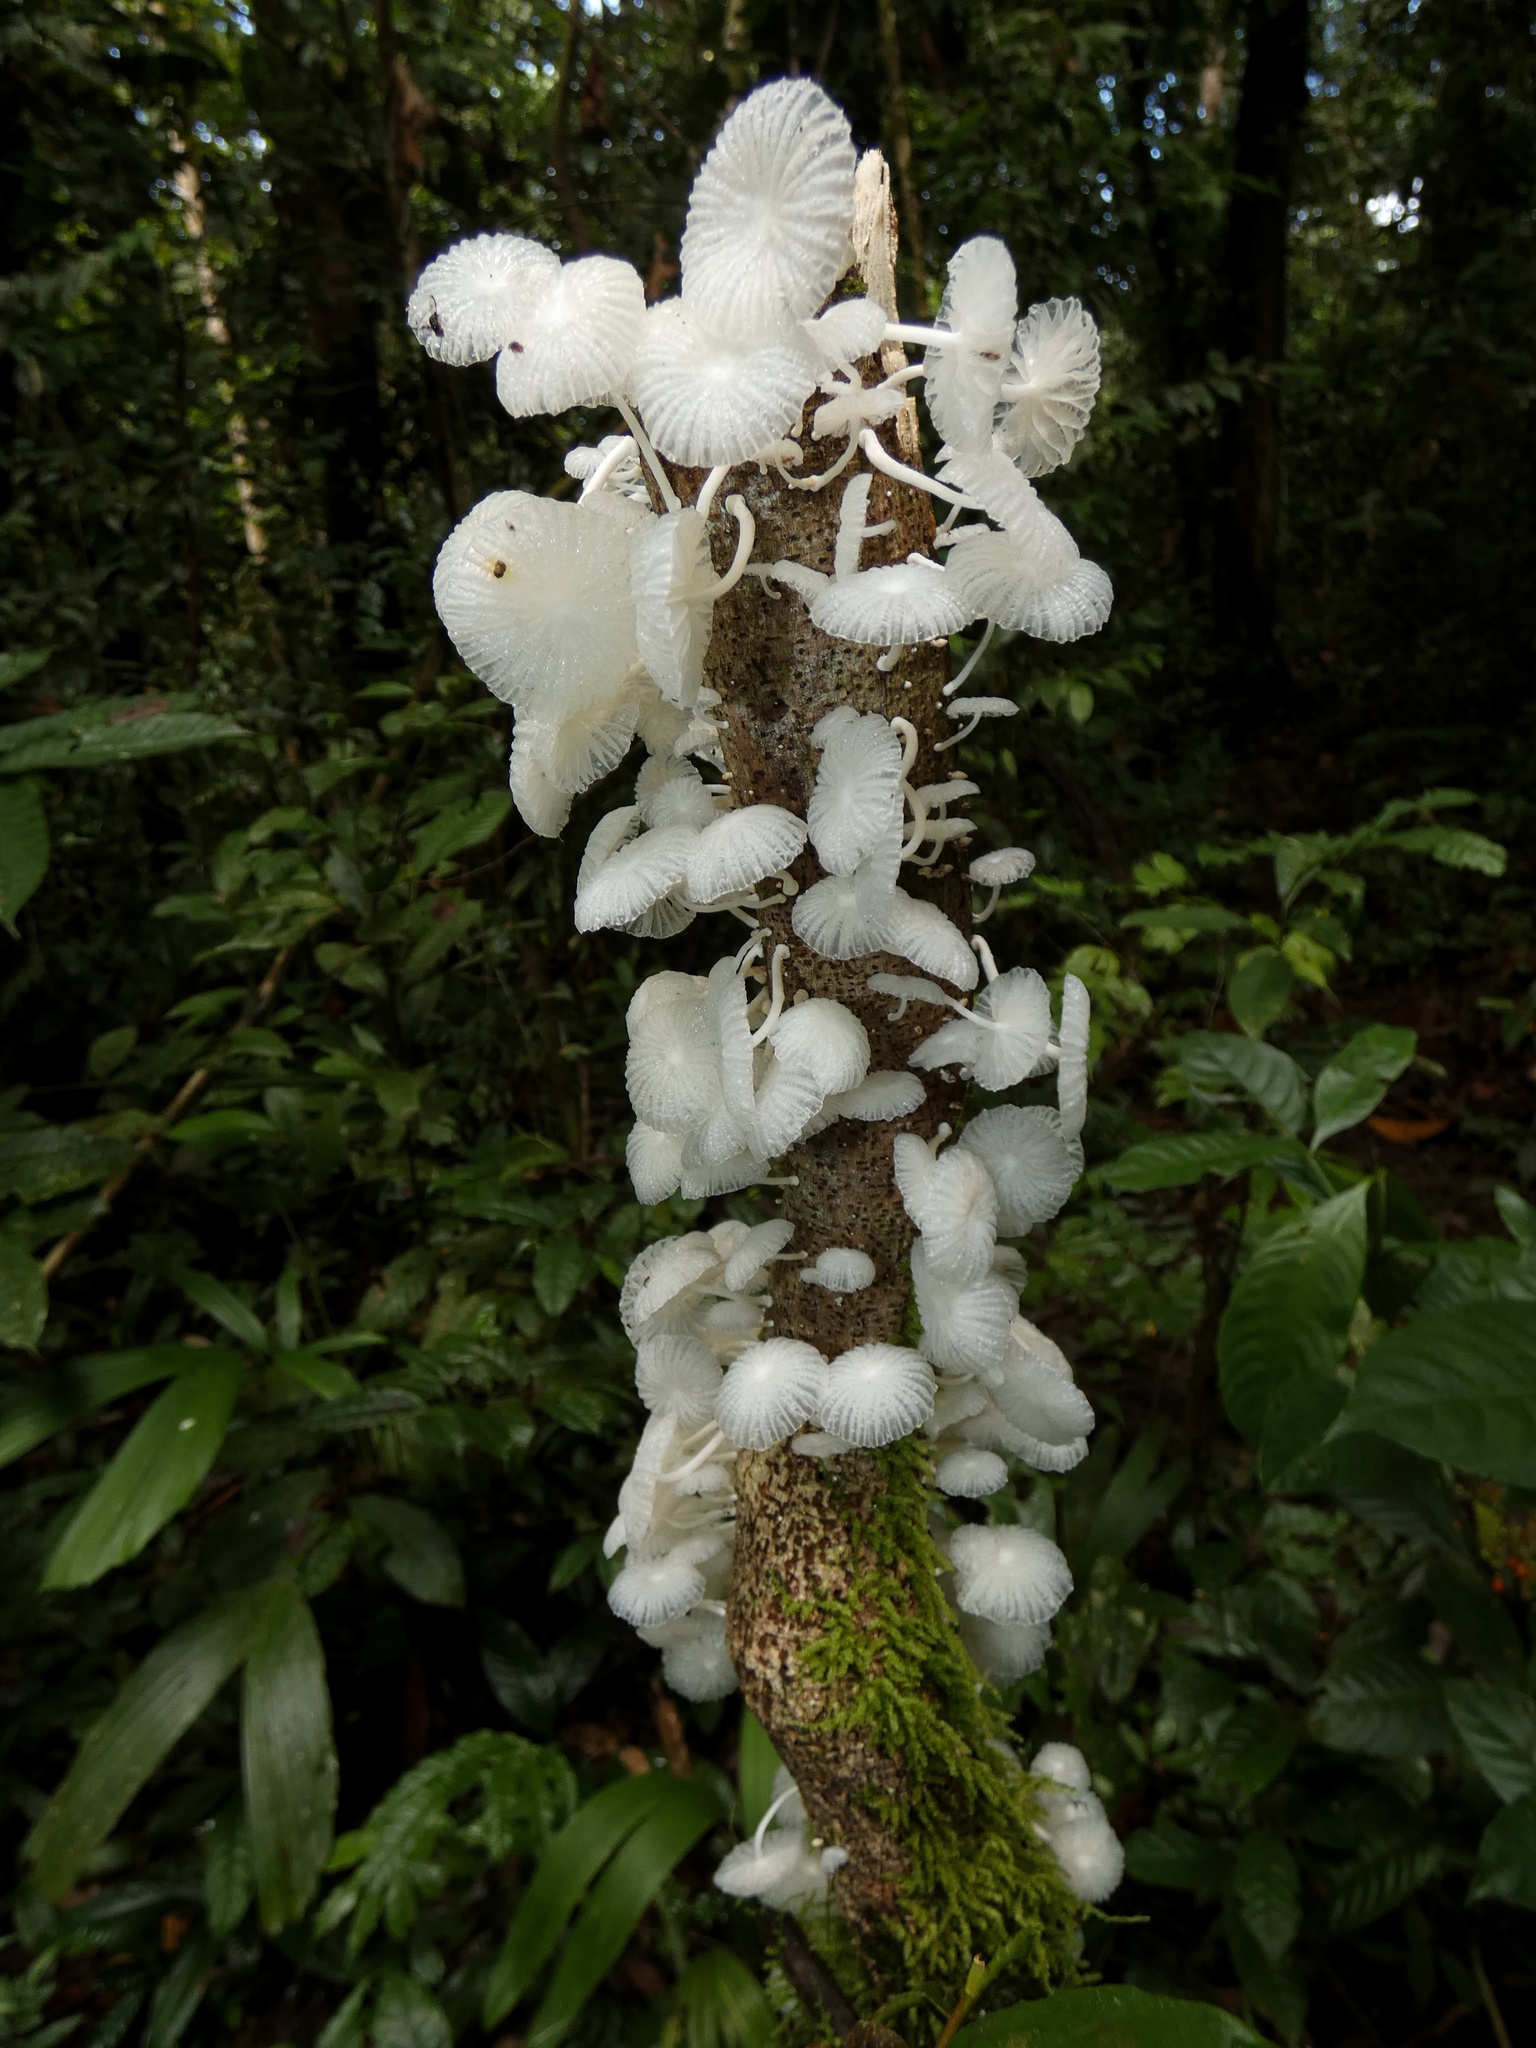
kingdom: Fungi
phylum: Basidiomycota
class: Agaricomycetes
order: Agaricales
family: Omphalotaceae
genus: Marasmiellus
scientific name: Marasmiellus cubensis
